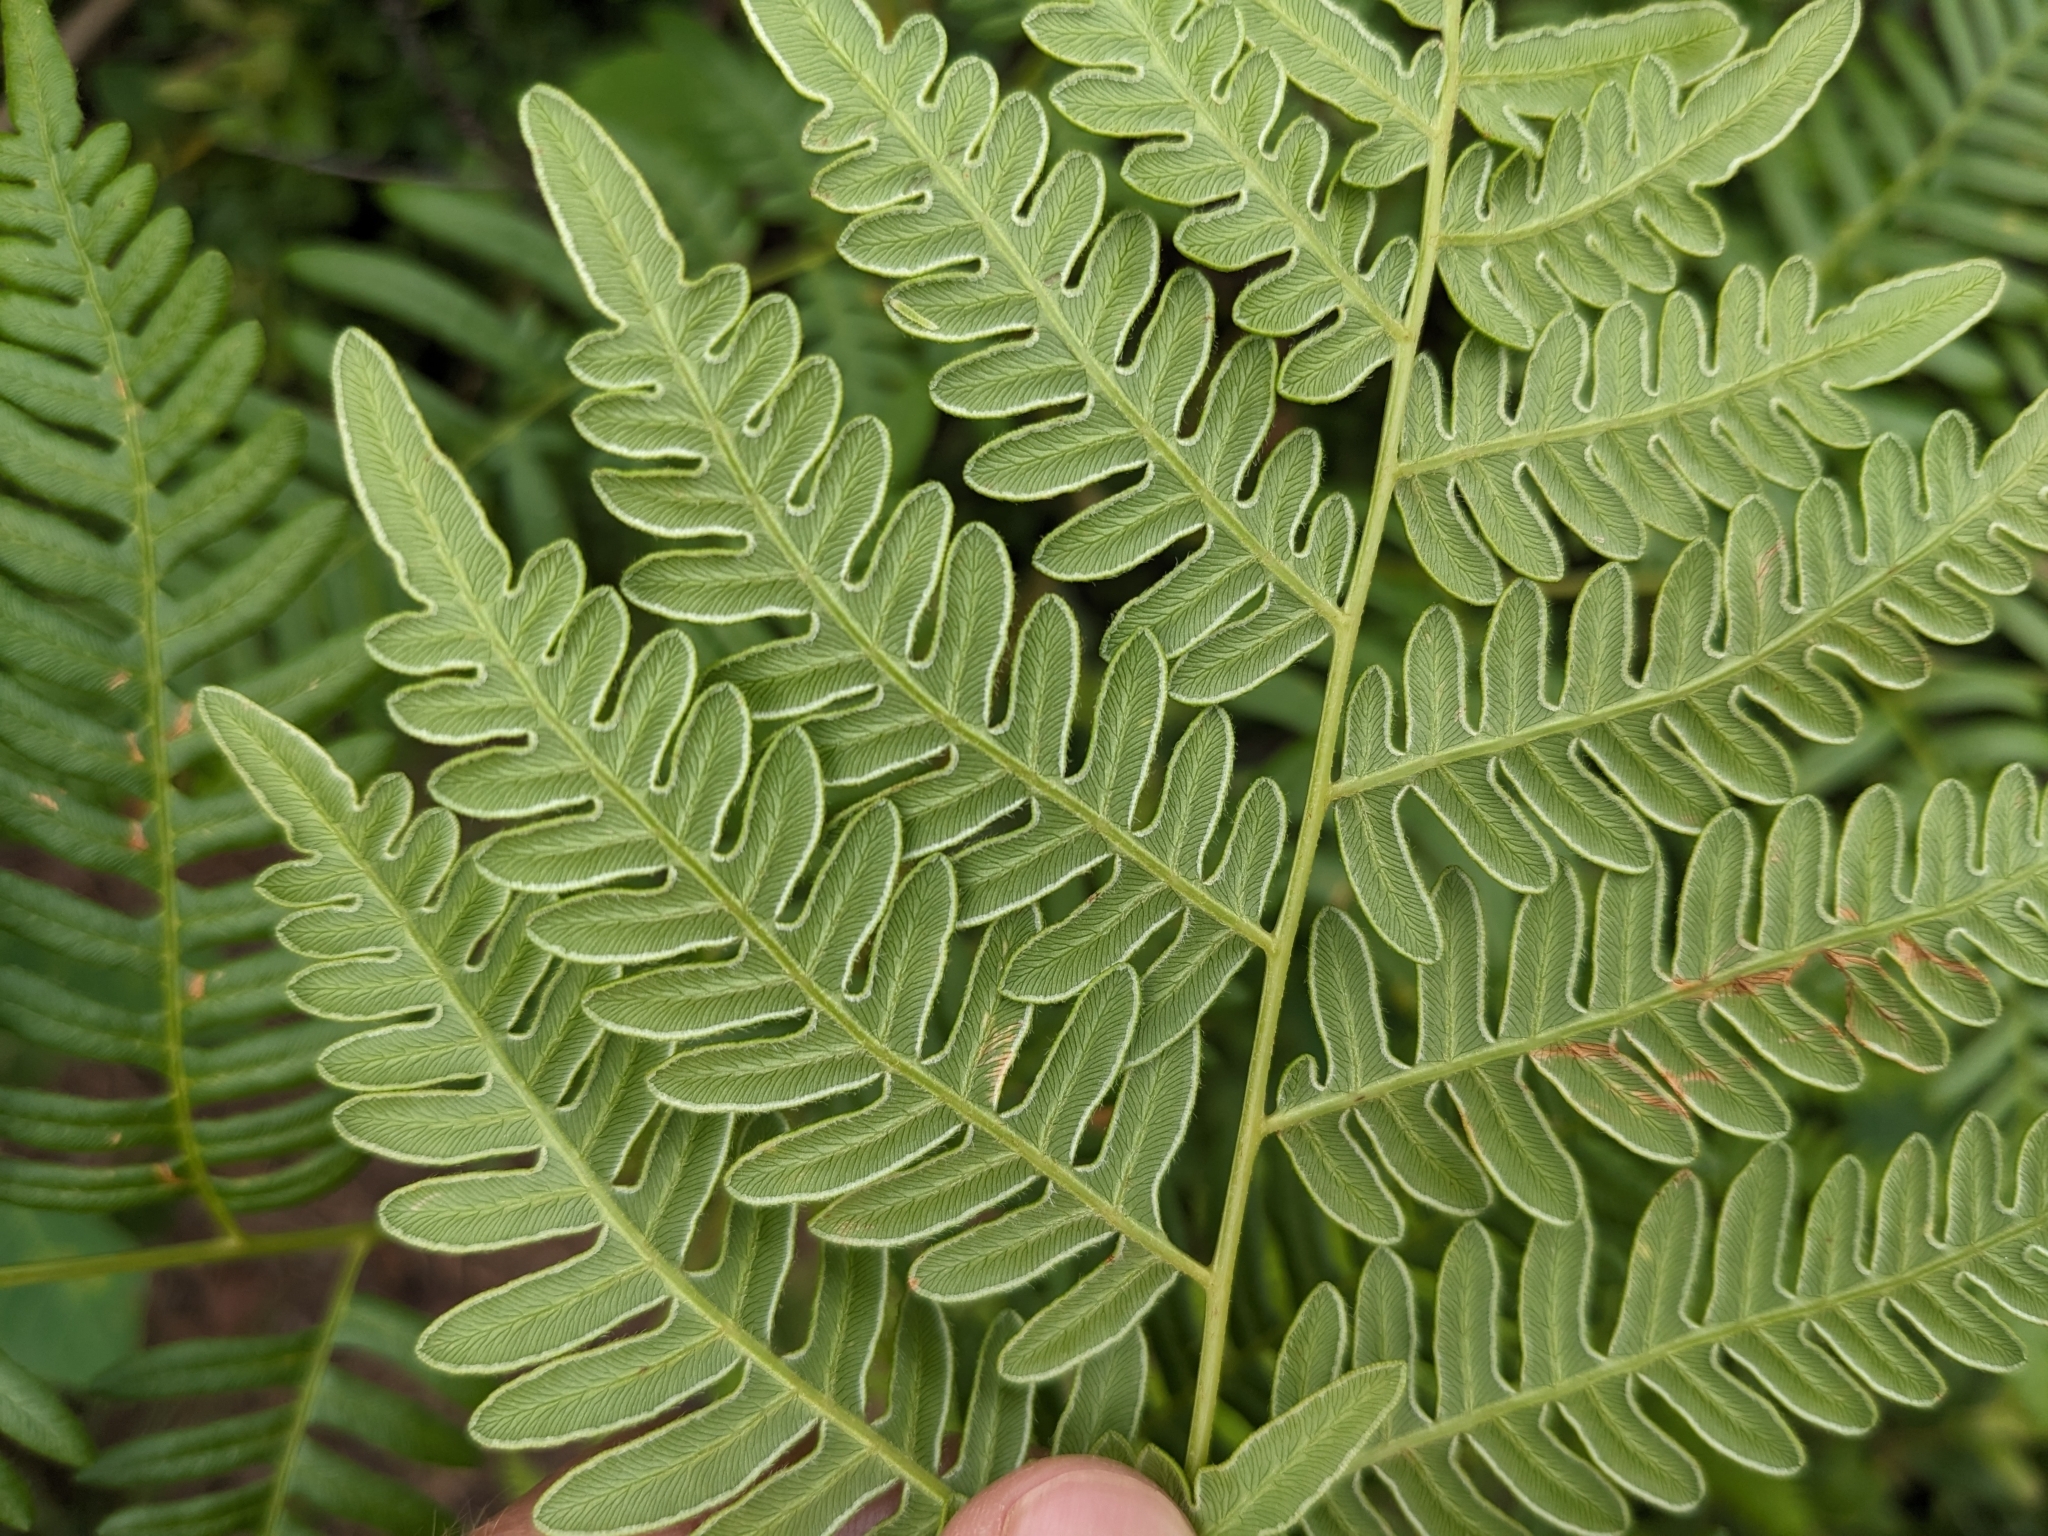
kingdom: Plantae
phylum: Tracheophyta
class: Polypodiopsida
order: Polypodiales
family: Dennstaedtiaceae
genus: Pteridium
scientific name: Pteridium aquilinum
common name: Bracken
